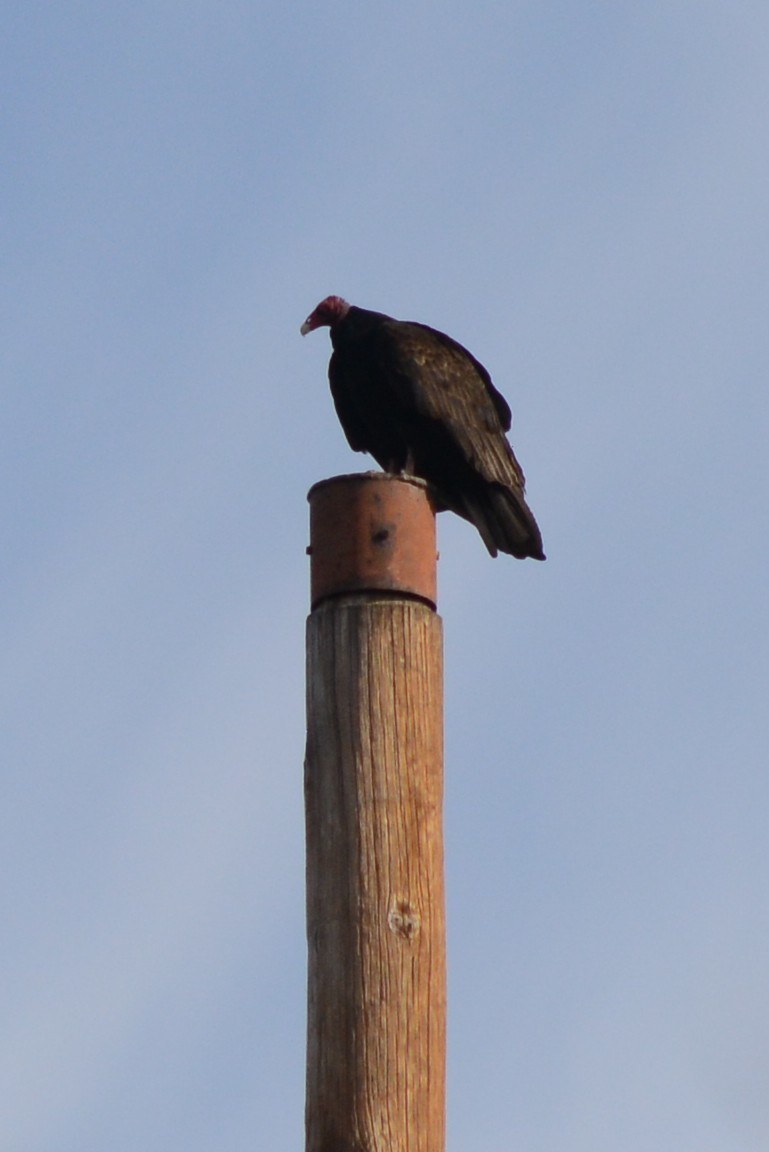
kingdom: Animalia
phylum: Chordata
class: Aves
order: Accipitriformes
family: Cathartidae
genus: Cathartes
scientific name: Cathartes aura
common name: Turkey vulture
